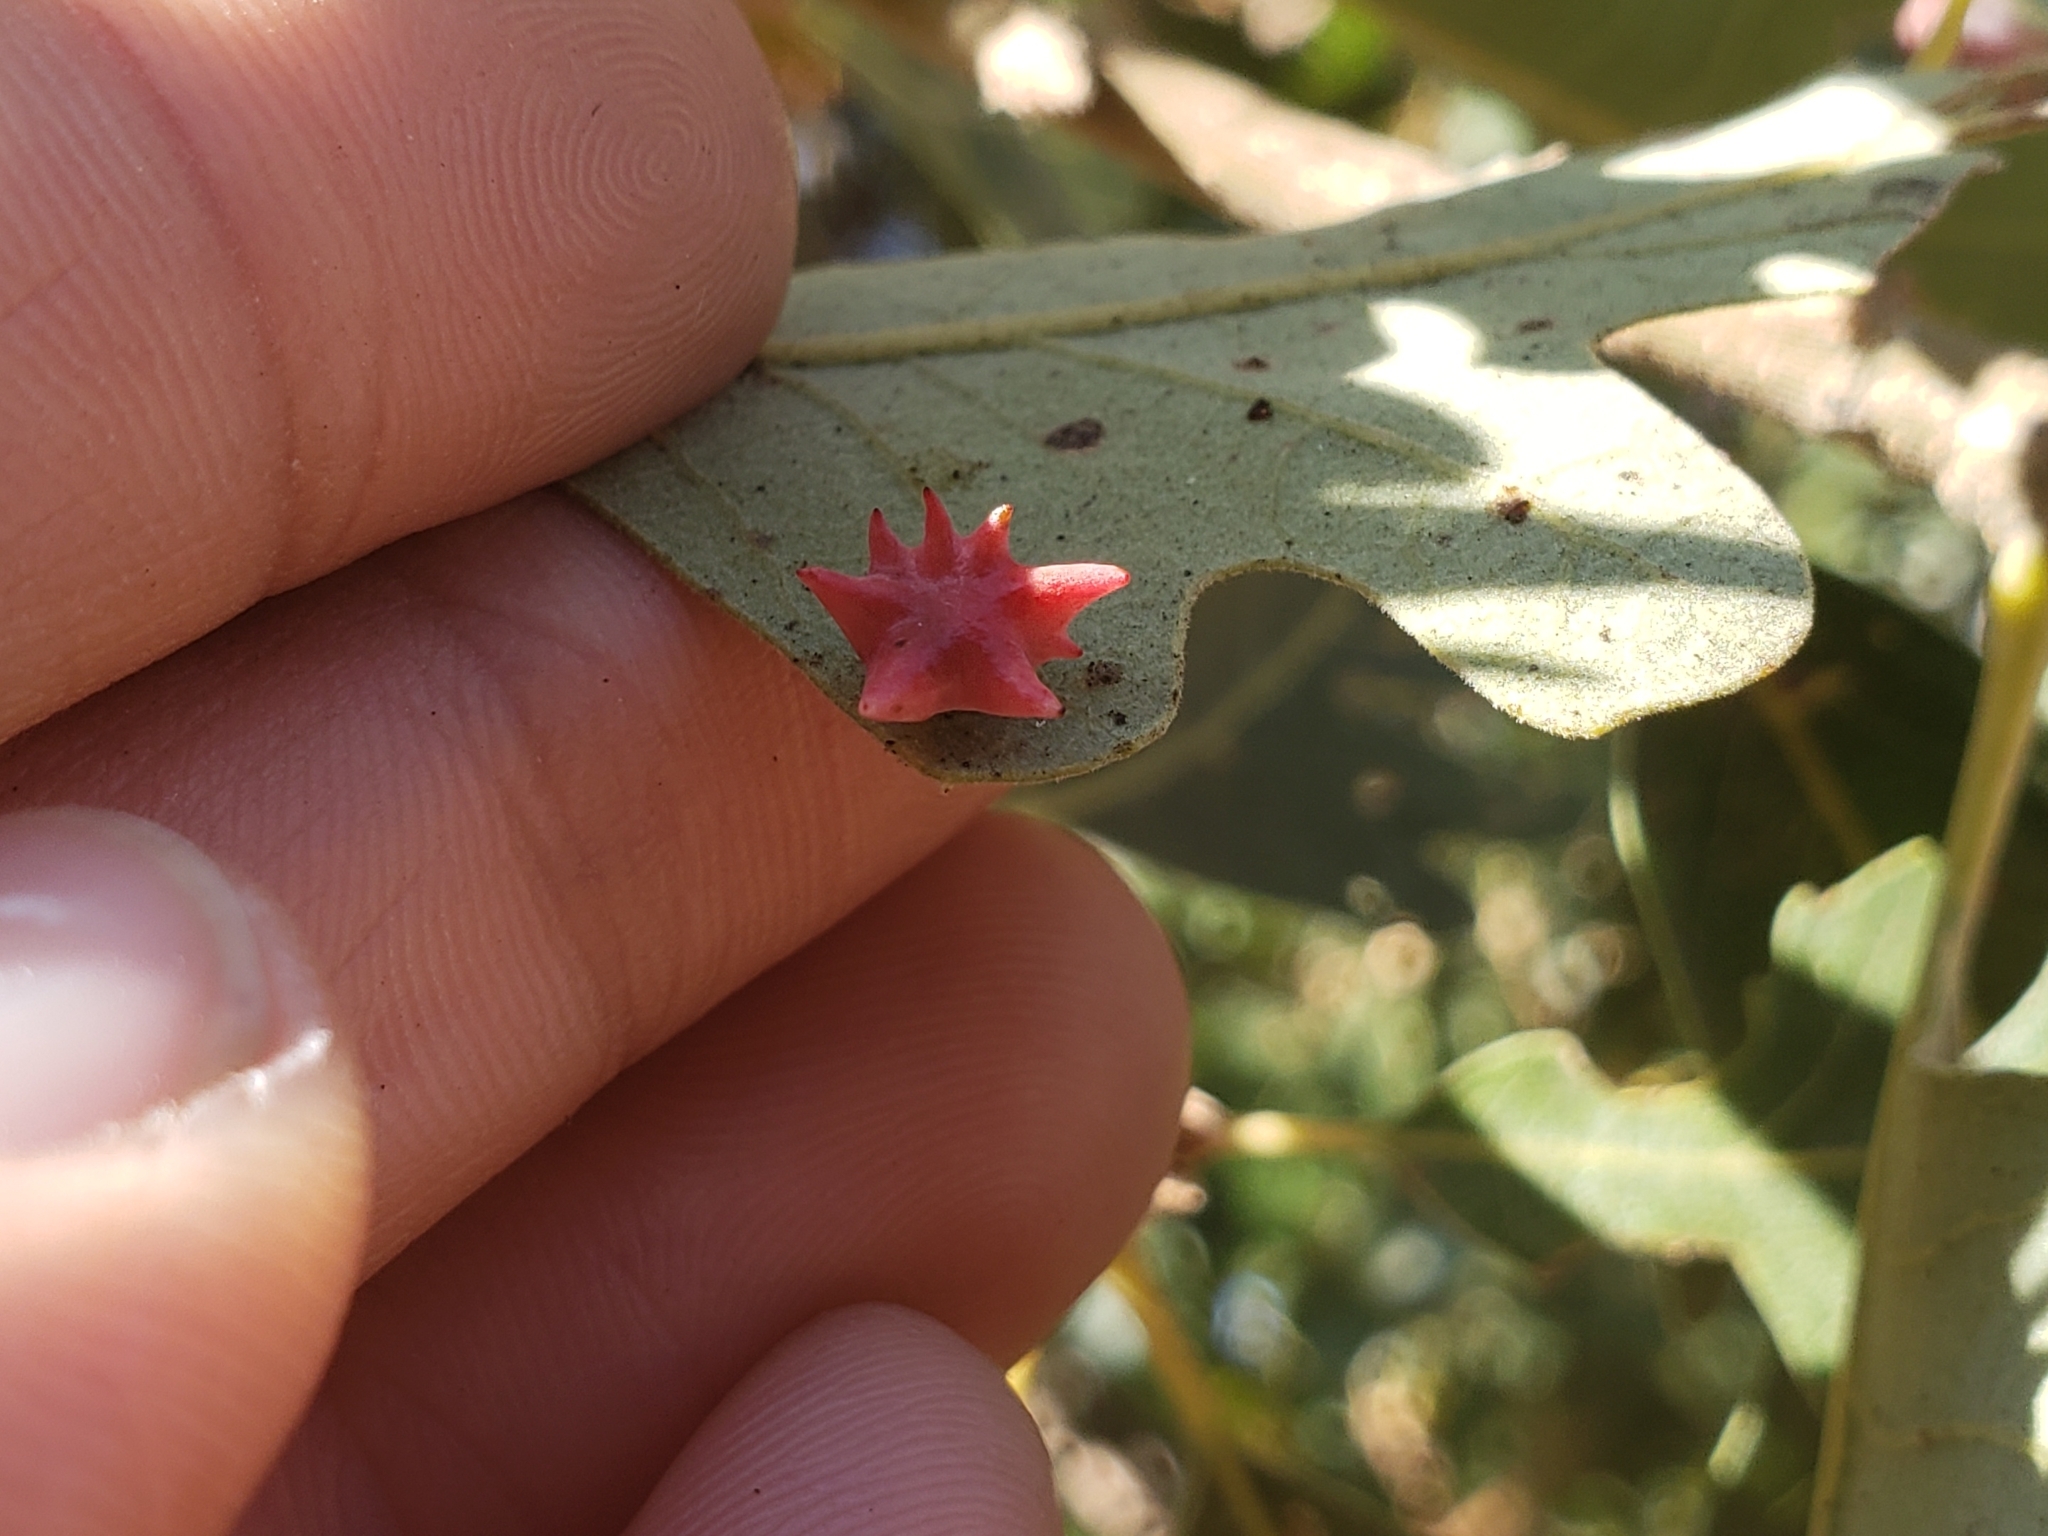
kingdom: Animalia
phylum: Arthropoda
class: Insecta
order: Hymenoptera
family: Cynipidae
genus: Cynips
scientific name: Cynips douglasi
